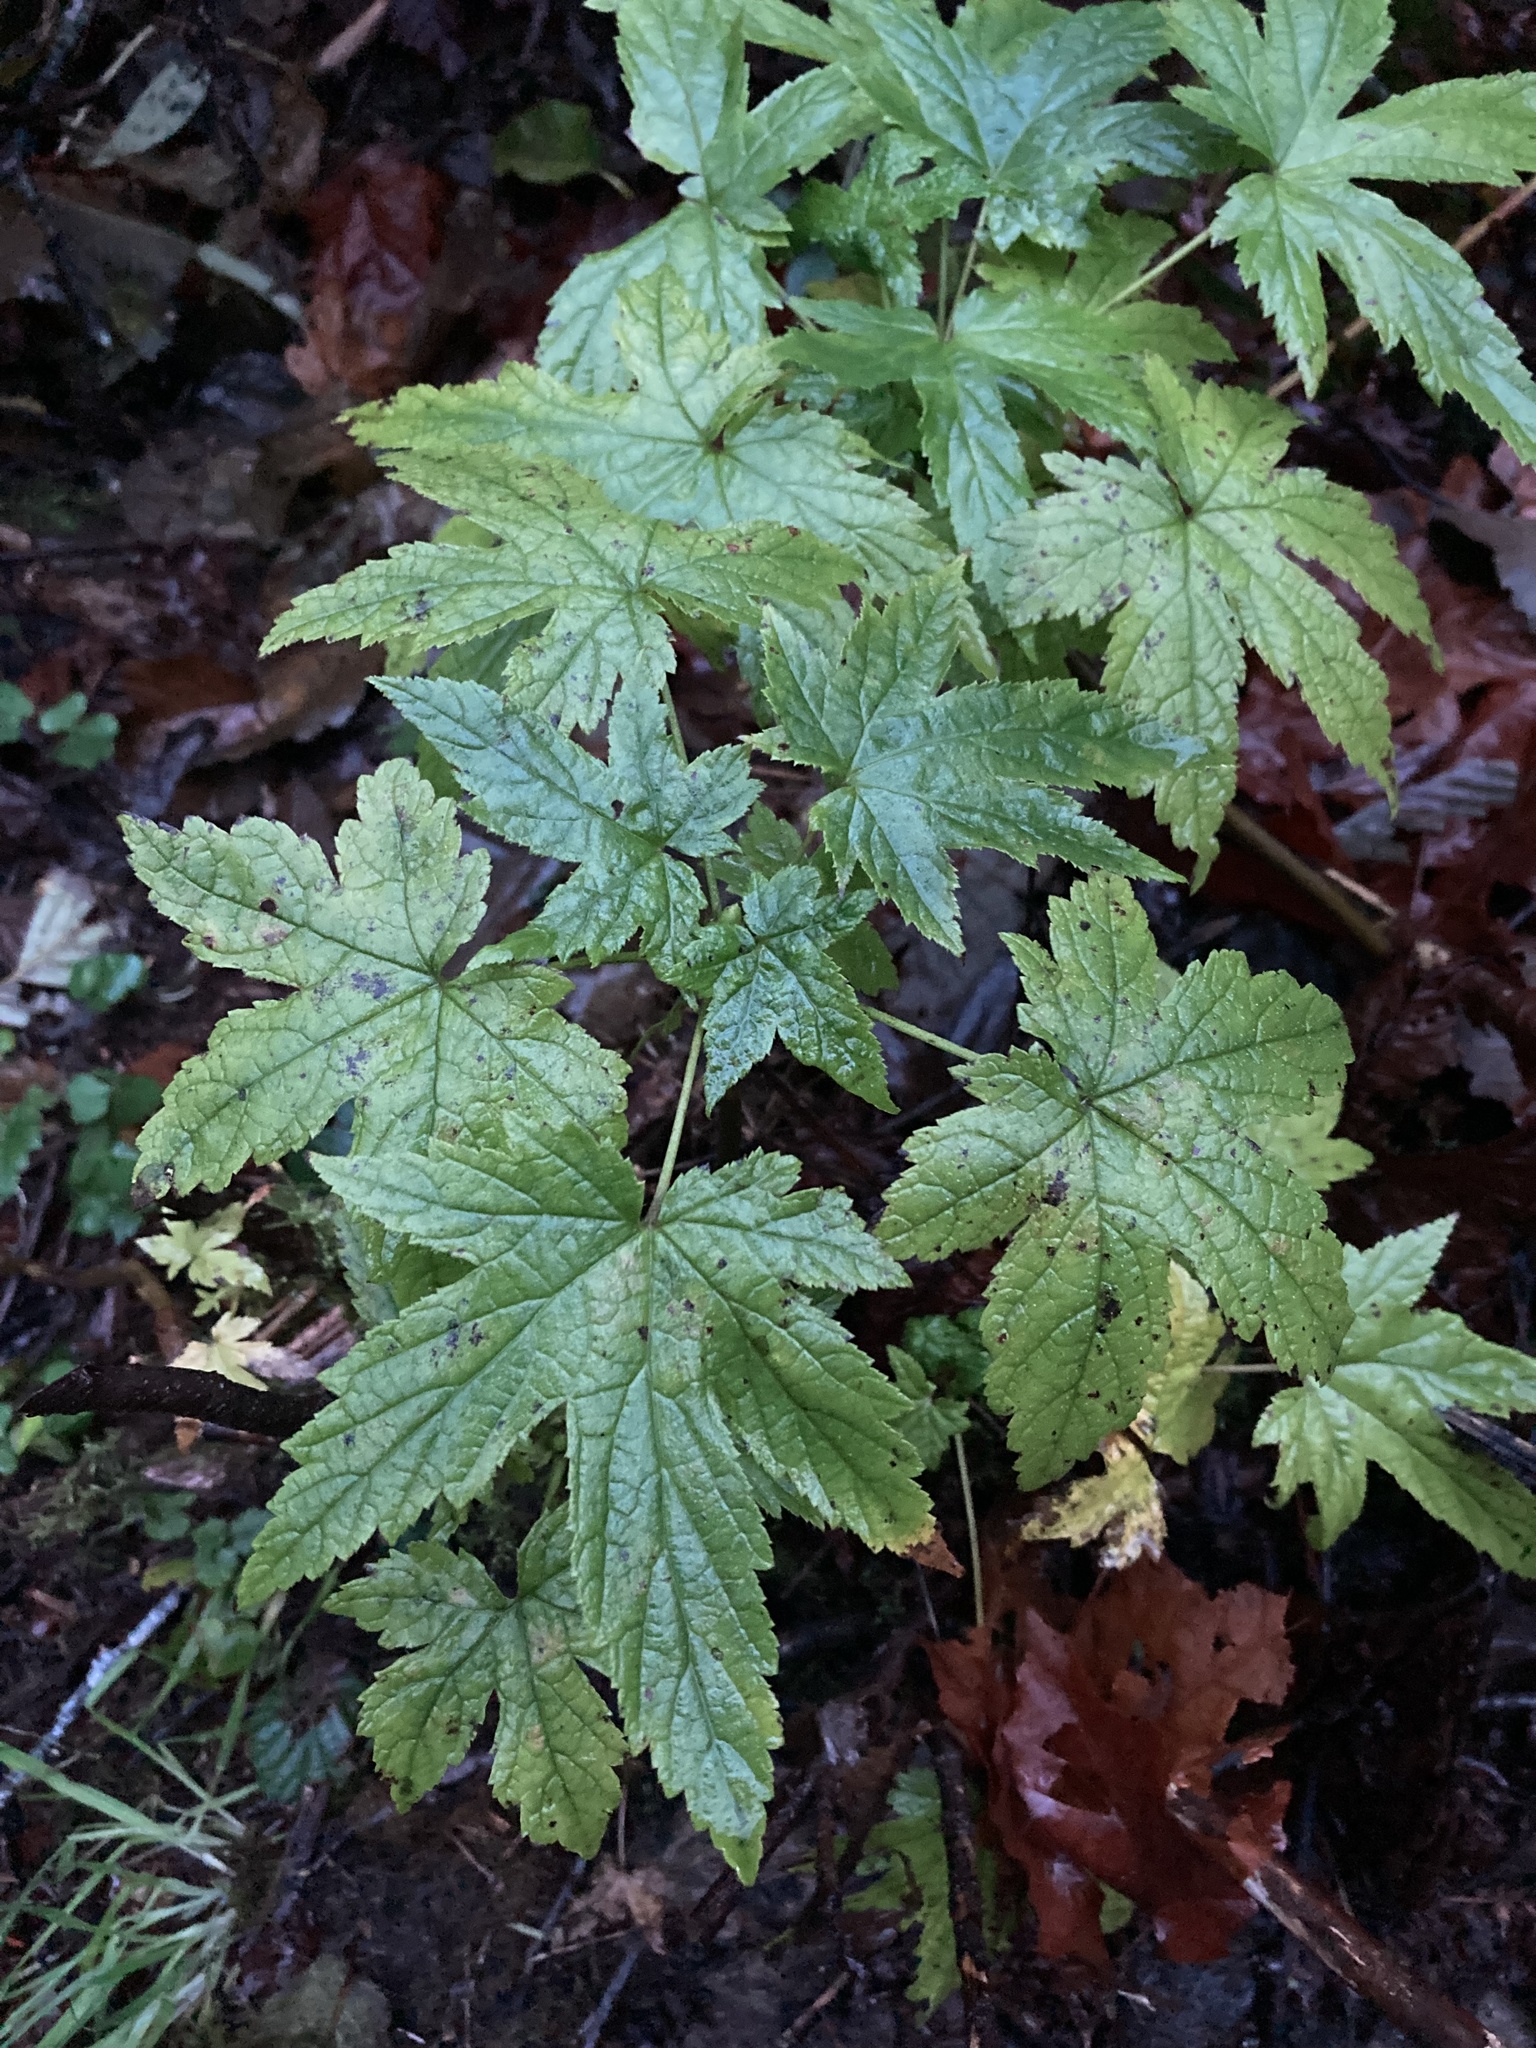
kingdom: Plantae
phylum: Tracheophyta
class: Magnoliopsida
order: Saxifragales
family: Grossulariaceae
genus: Ribes
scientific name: Ribes bracteosum
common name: California black currant
